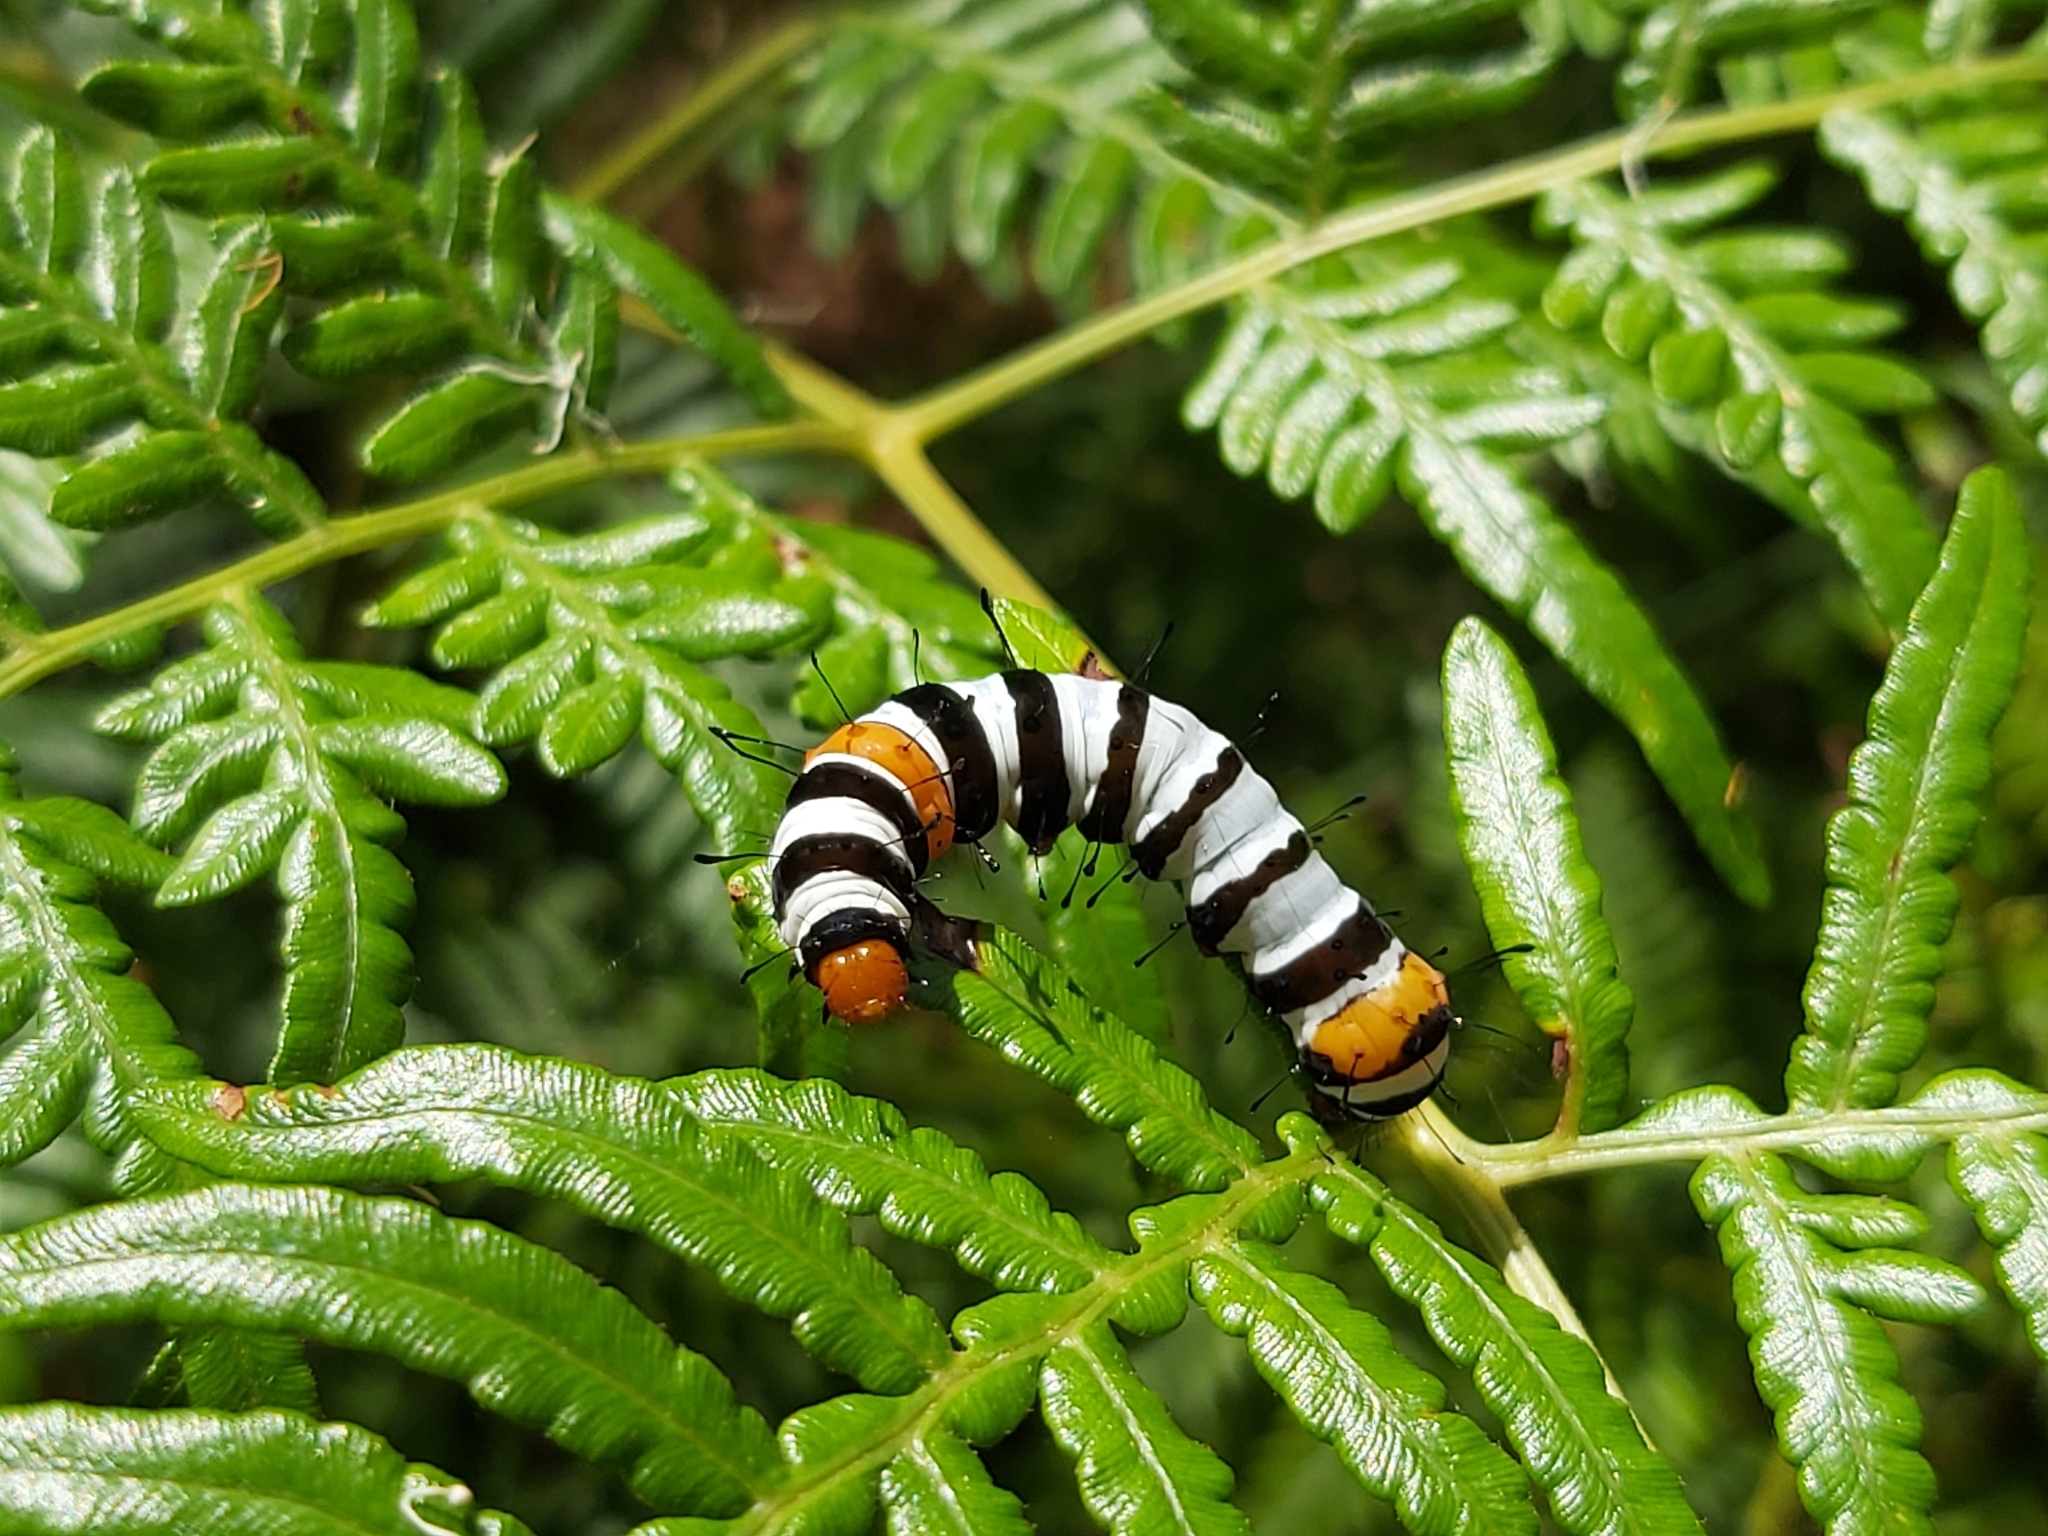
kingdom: Animalia
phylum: Arthropoda
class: Insecta
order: Lepidoptera
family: Noctuidae
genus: Agarista
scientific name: Agarista agricola
